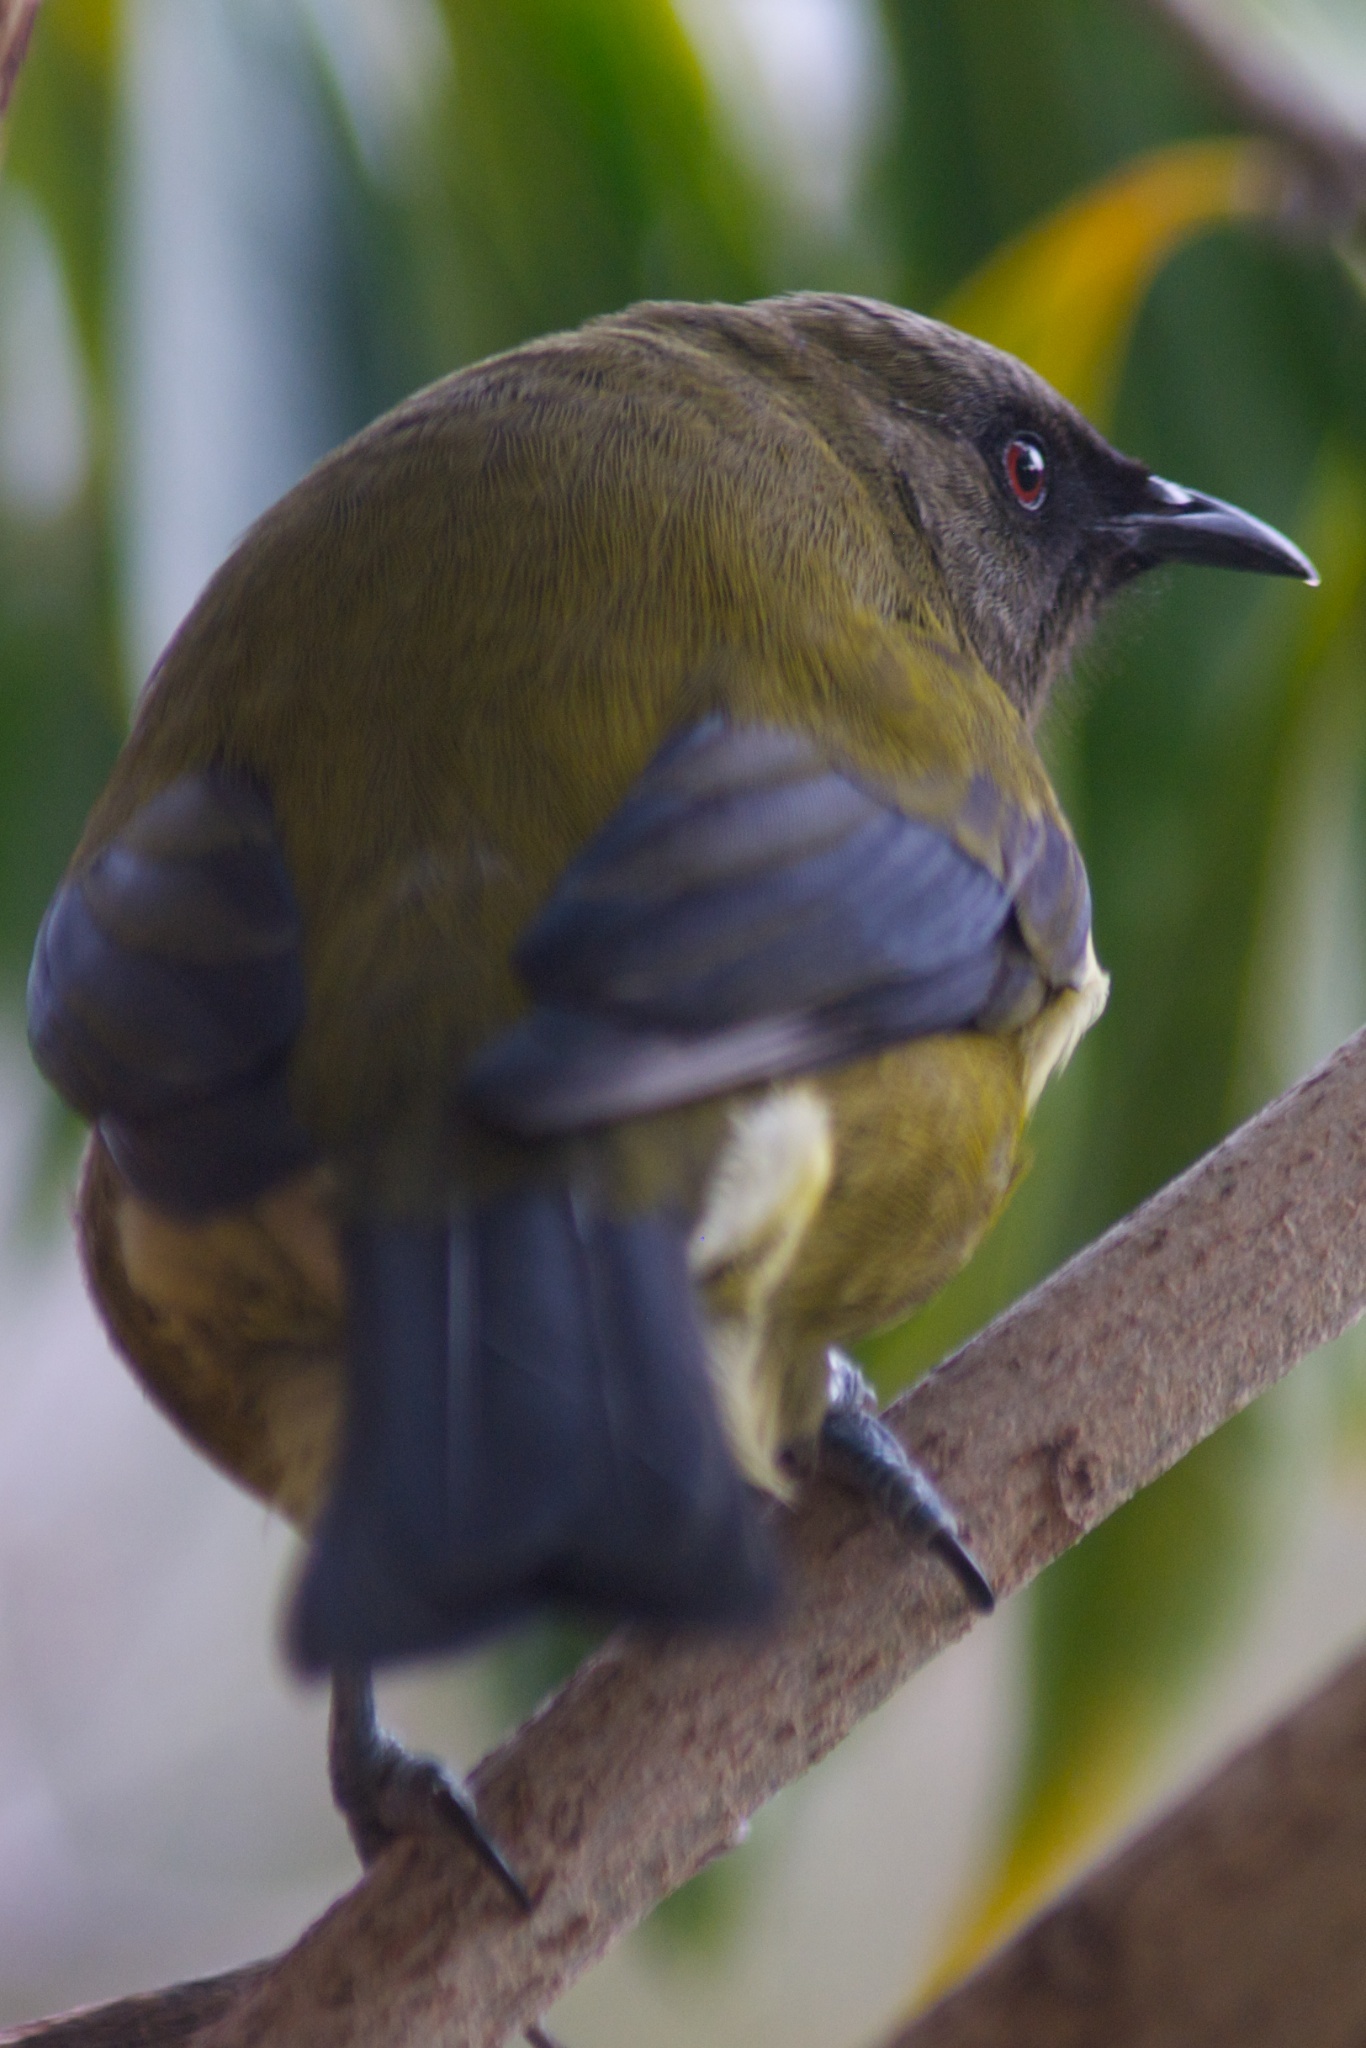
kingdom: Animalia
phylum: Chordata
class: Aves
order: Passeriformes
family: Meliphagidae
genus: Anthornis
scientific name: Anthornis melanura
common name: New zealand bellbird
